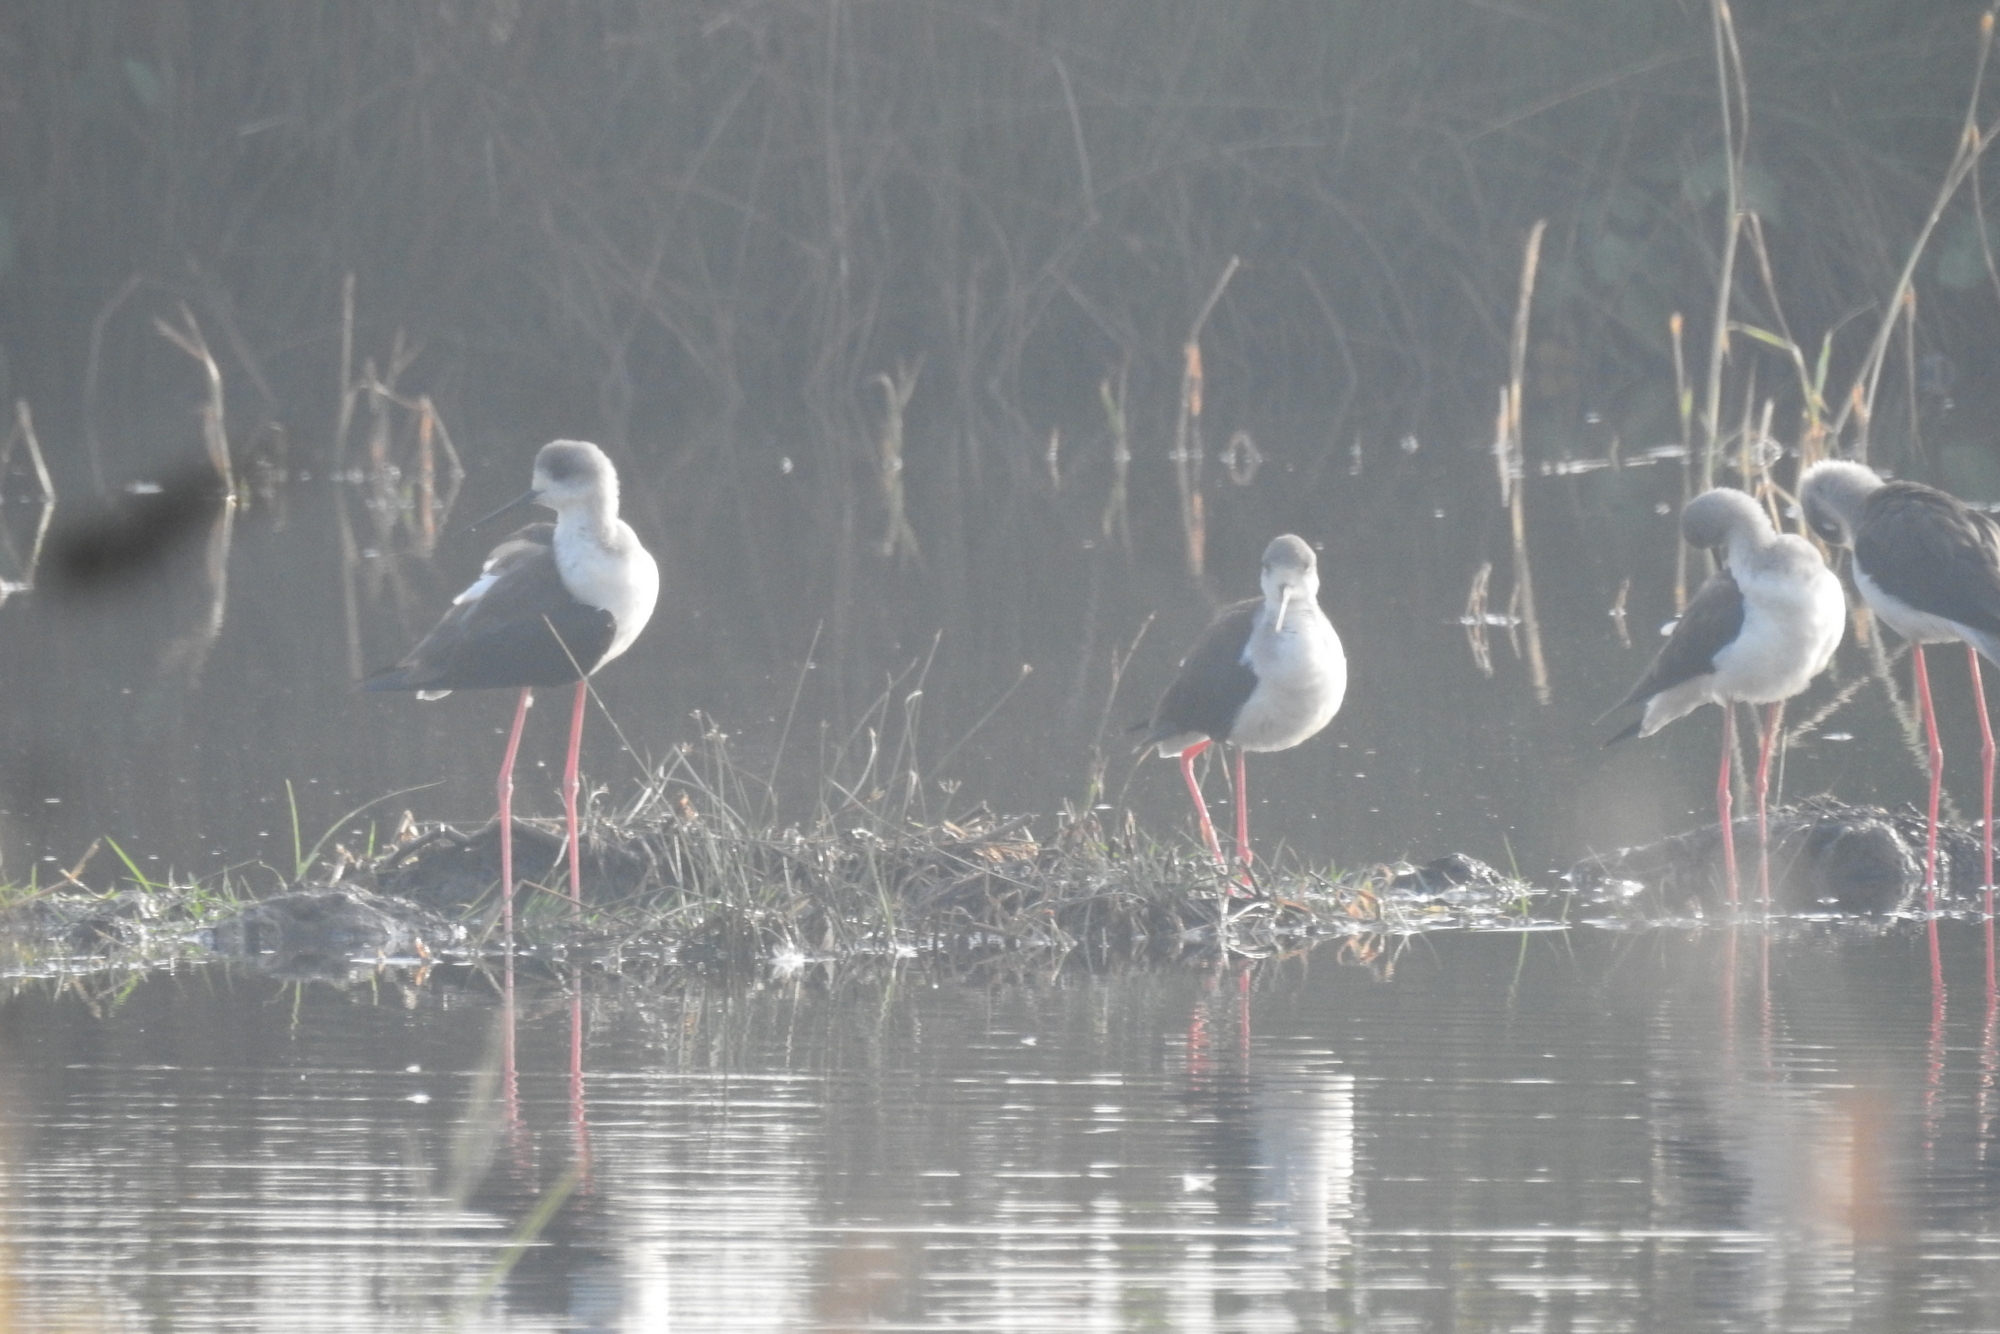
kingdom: Animalia
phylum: Chordata
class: Aves
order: Charadriiformes
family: Recurvirostridae
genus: Himantopus
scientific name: Himantopus himantopus
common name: Black-winged stilt
